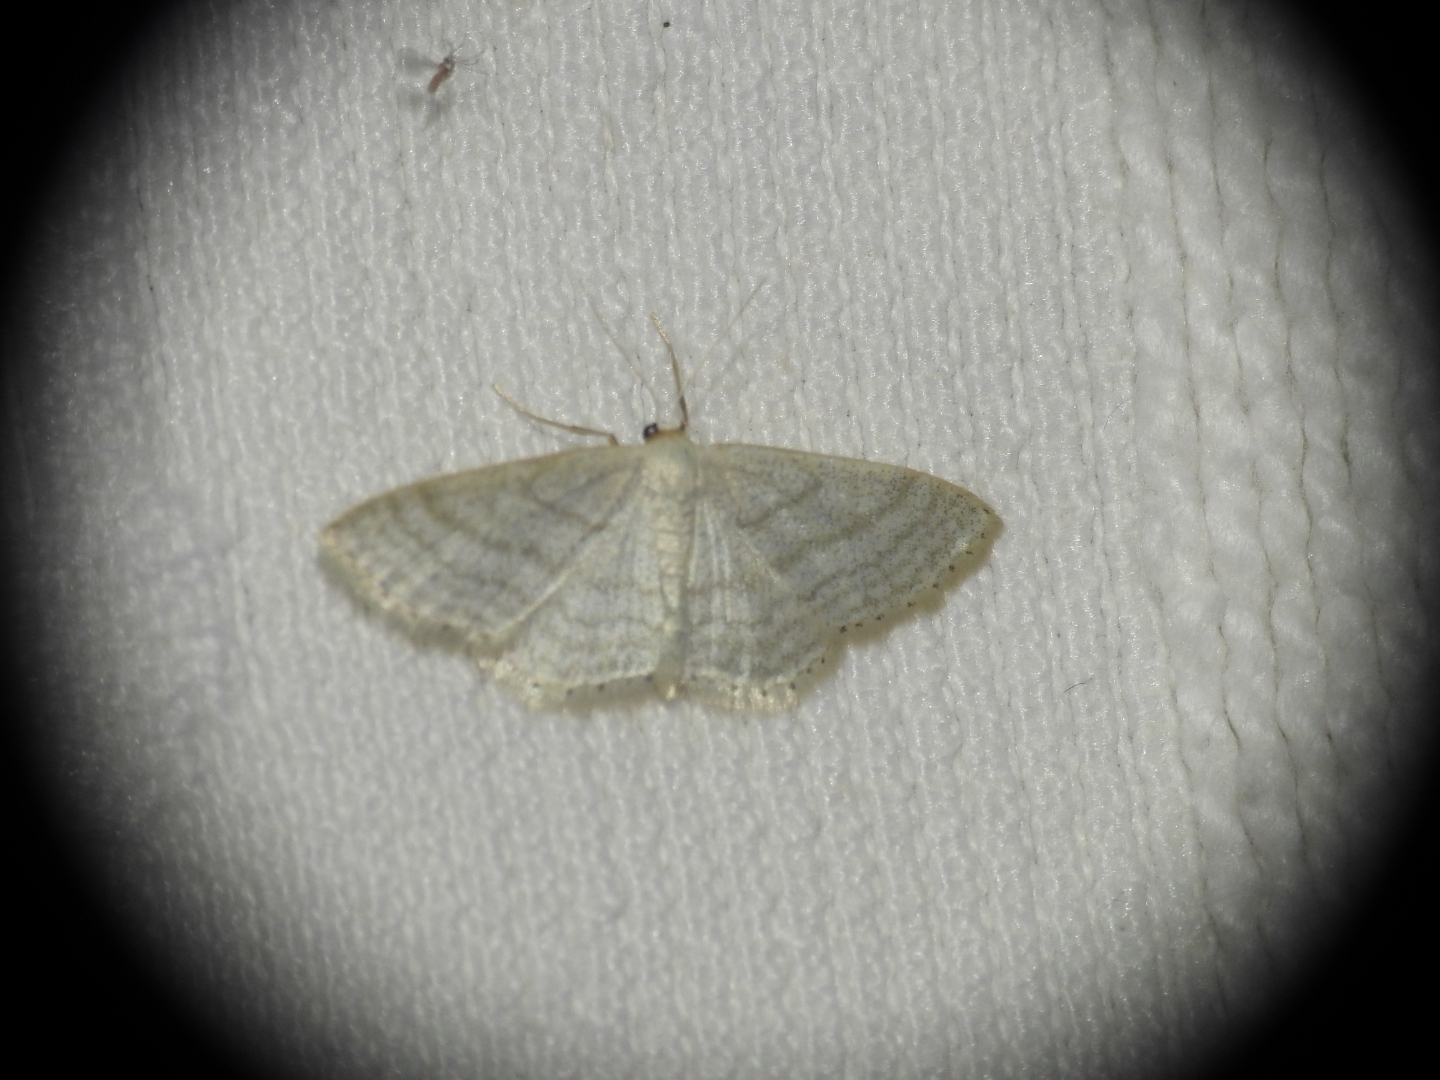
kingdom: Animalia
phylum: Arthropoda
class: Insecta
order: Lepidoptera
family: Geometridae
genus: Idaea
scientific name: Idaea subsericeata
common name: Satin wave
